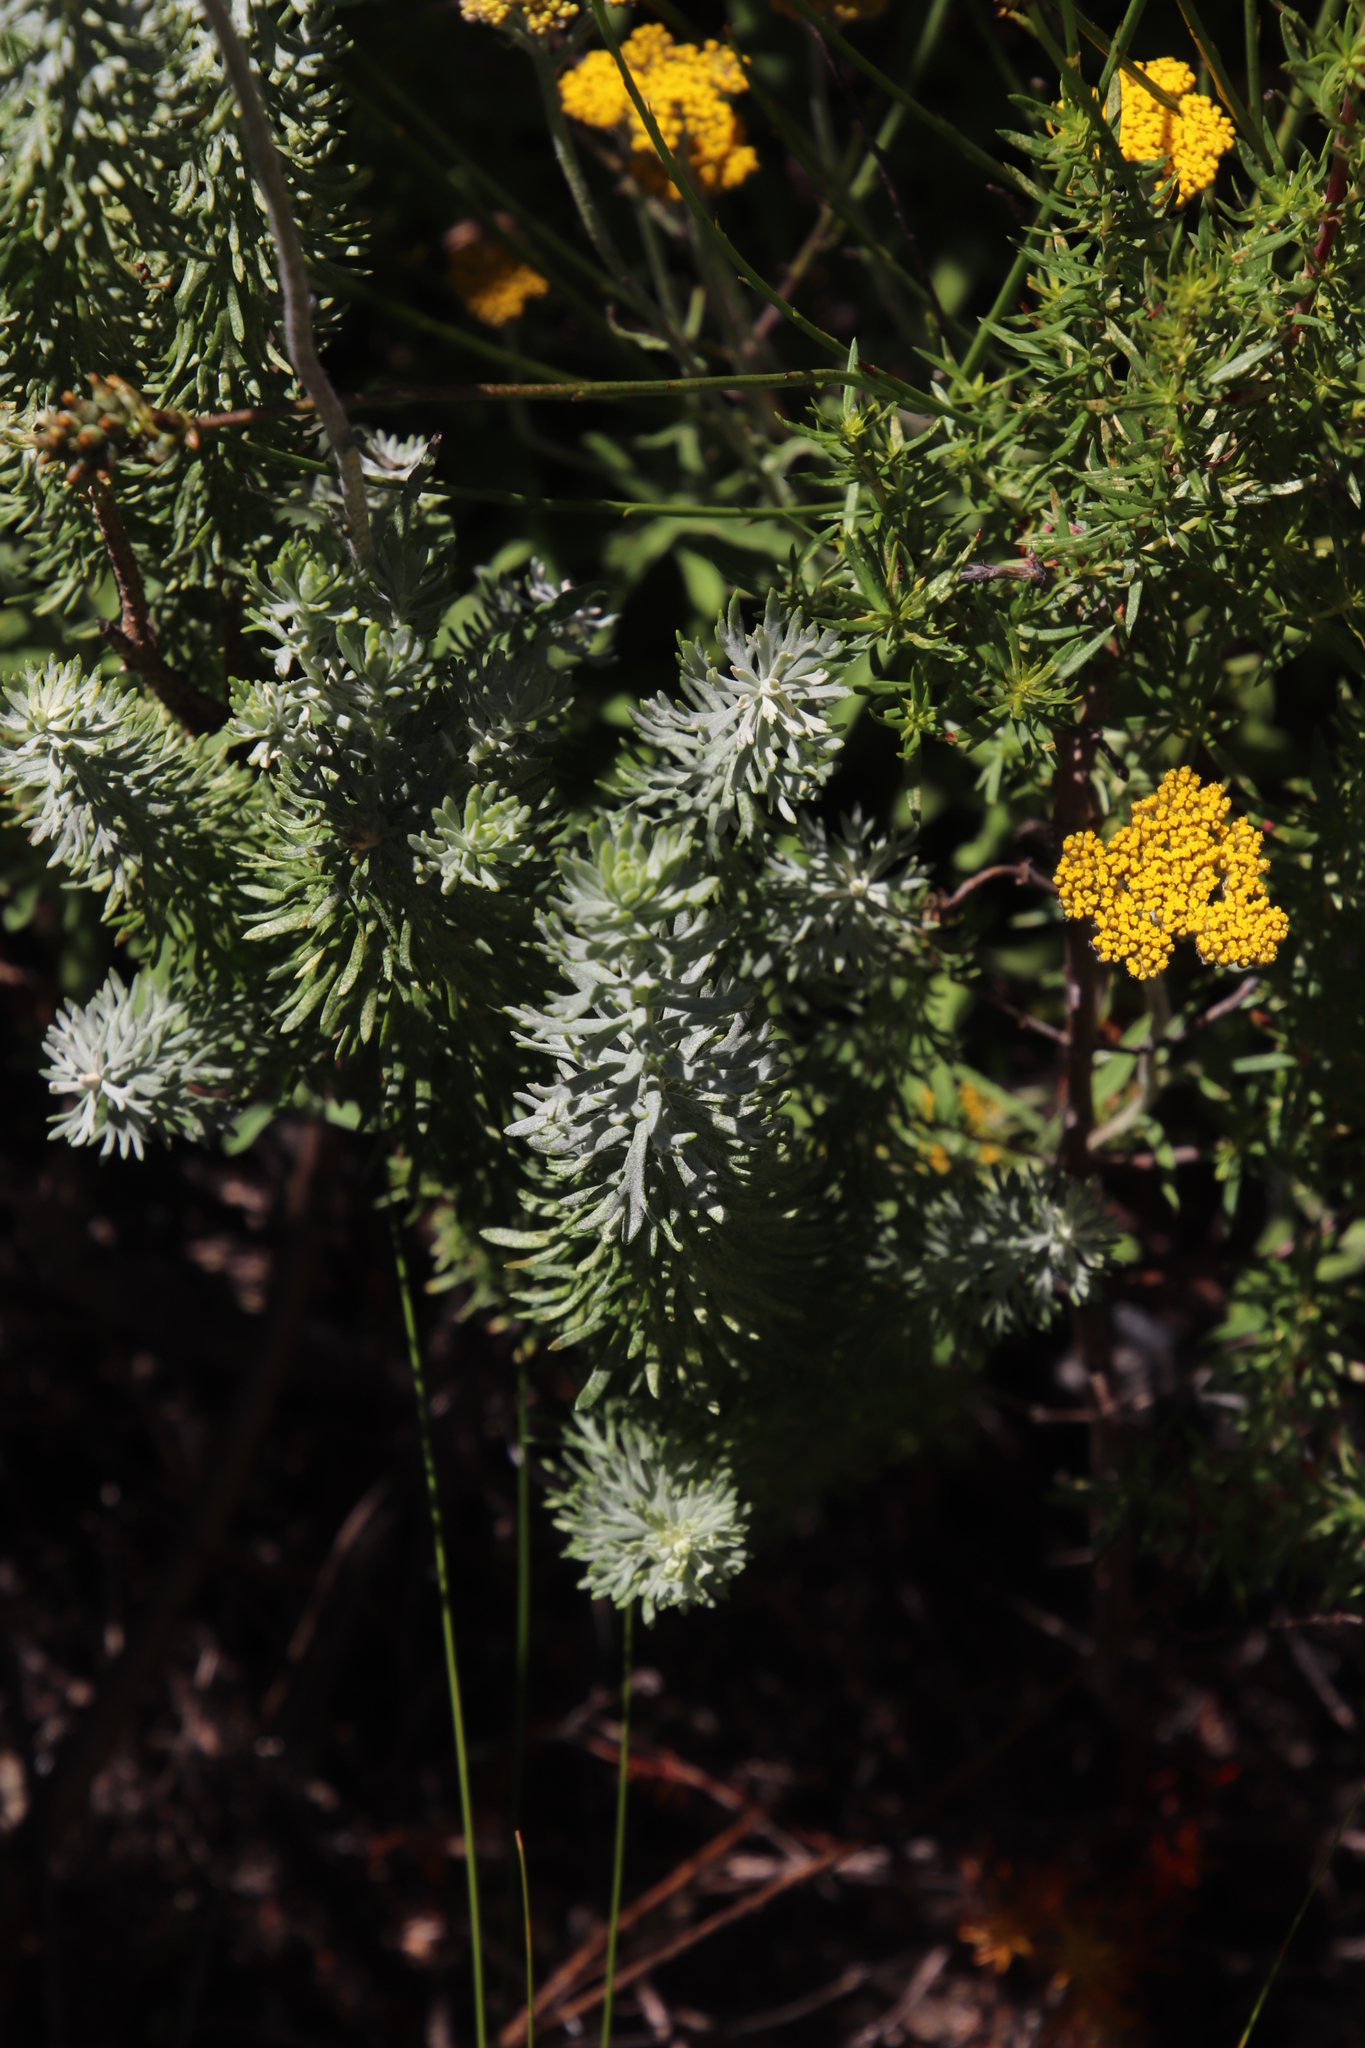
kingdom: Plantae
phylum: Tracheophyta
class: Magnoliopsida
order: Asterales
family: Asteraceae
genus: Athanasia
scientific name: Athanasia trifurcata
